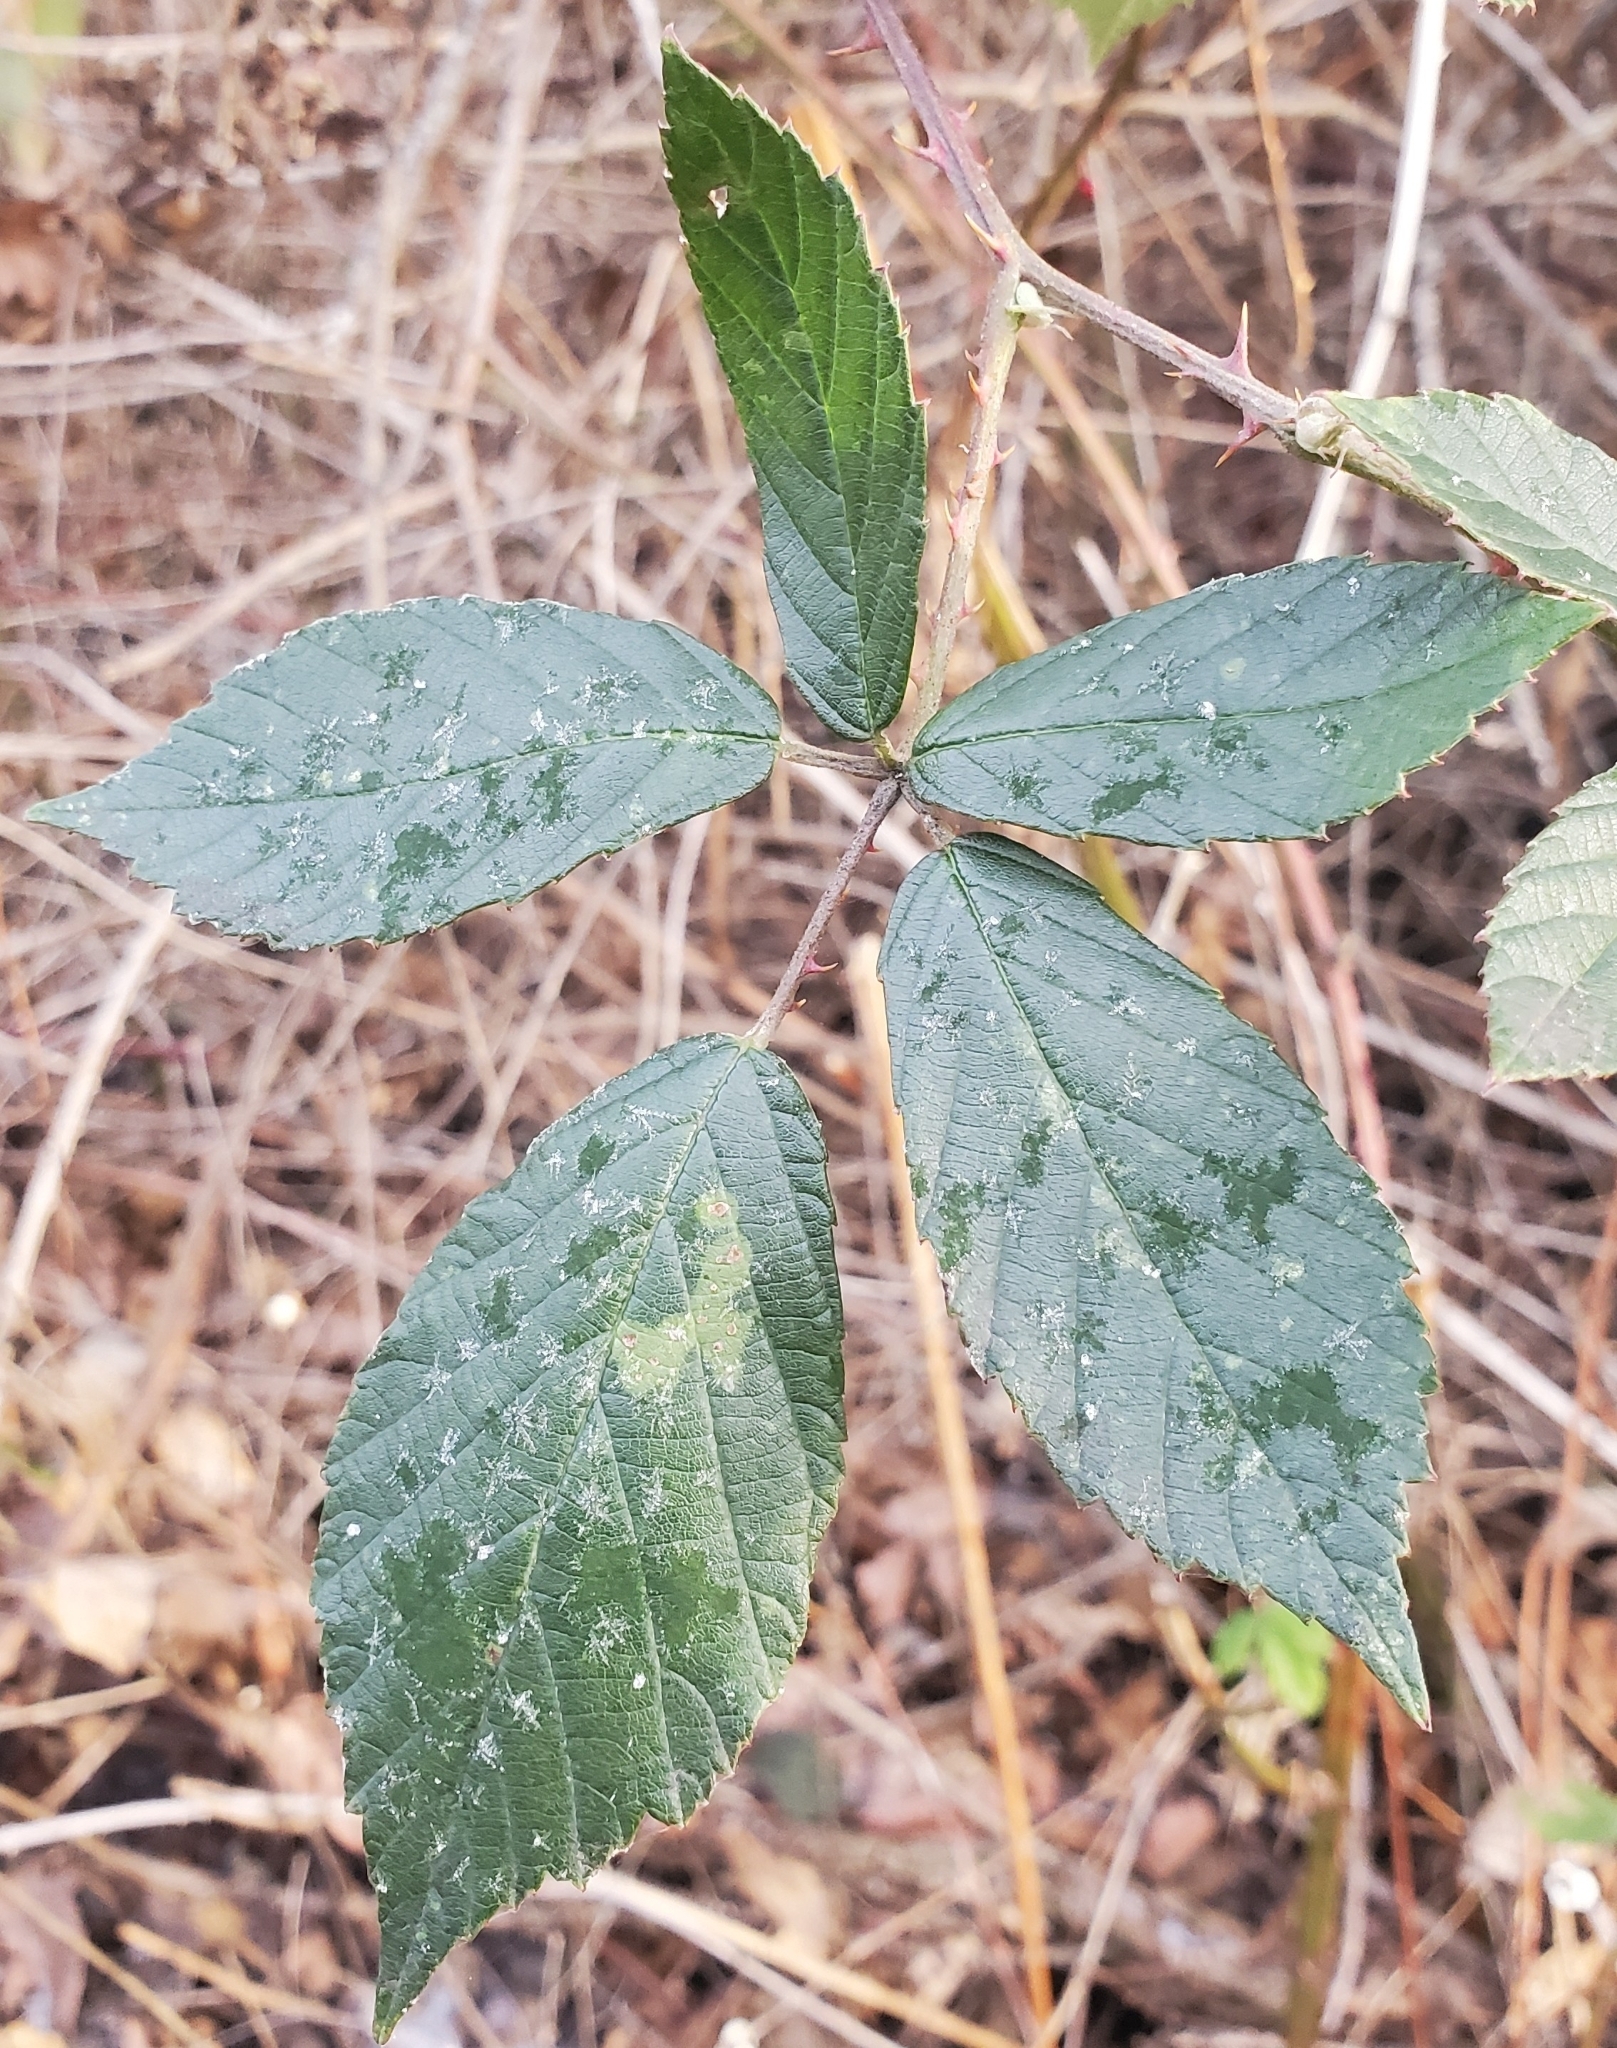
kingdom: Plantae
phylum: Tracheophyta
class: Magnoliopsida
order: Rosales
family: Rosaceae
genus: Rubus
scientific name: Rubus vestitus
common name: European blackberry
